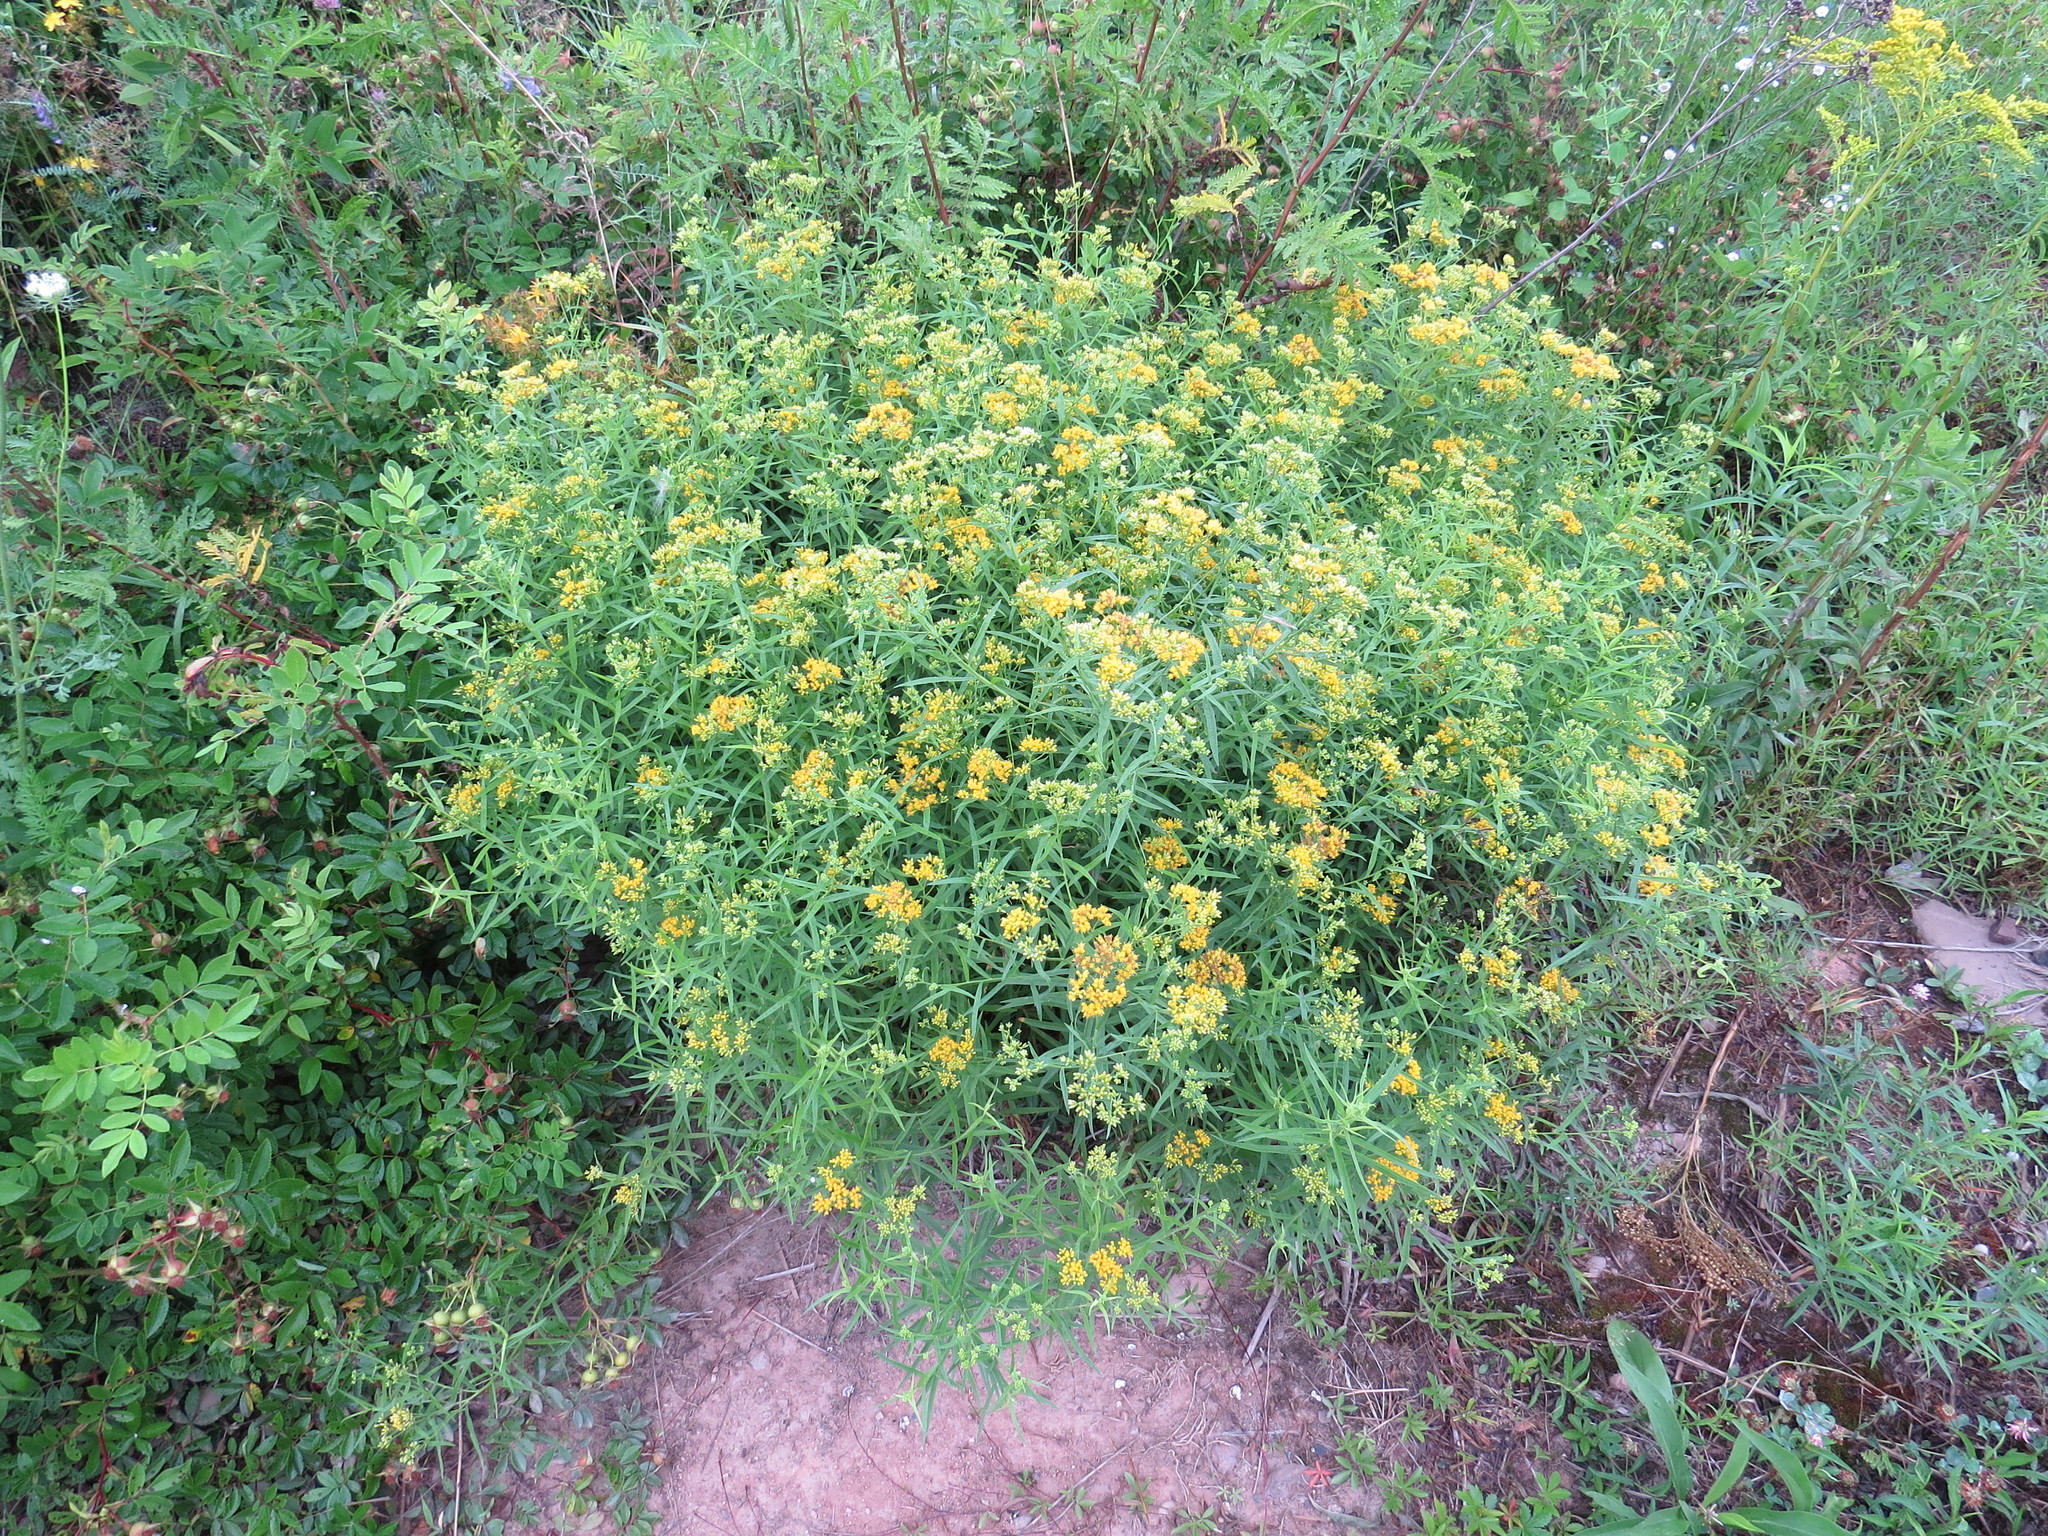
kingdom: Plantae
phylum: Tracheophyta
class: Magnoliopsida
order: Asterales
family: Asteraceae
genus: Euthamia
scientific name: Euthamia graminifolia
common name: Common goldentop
